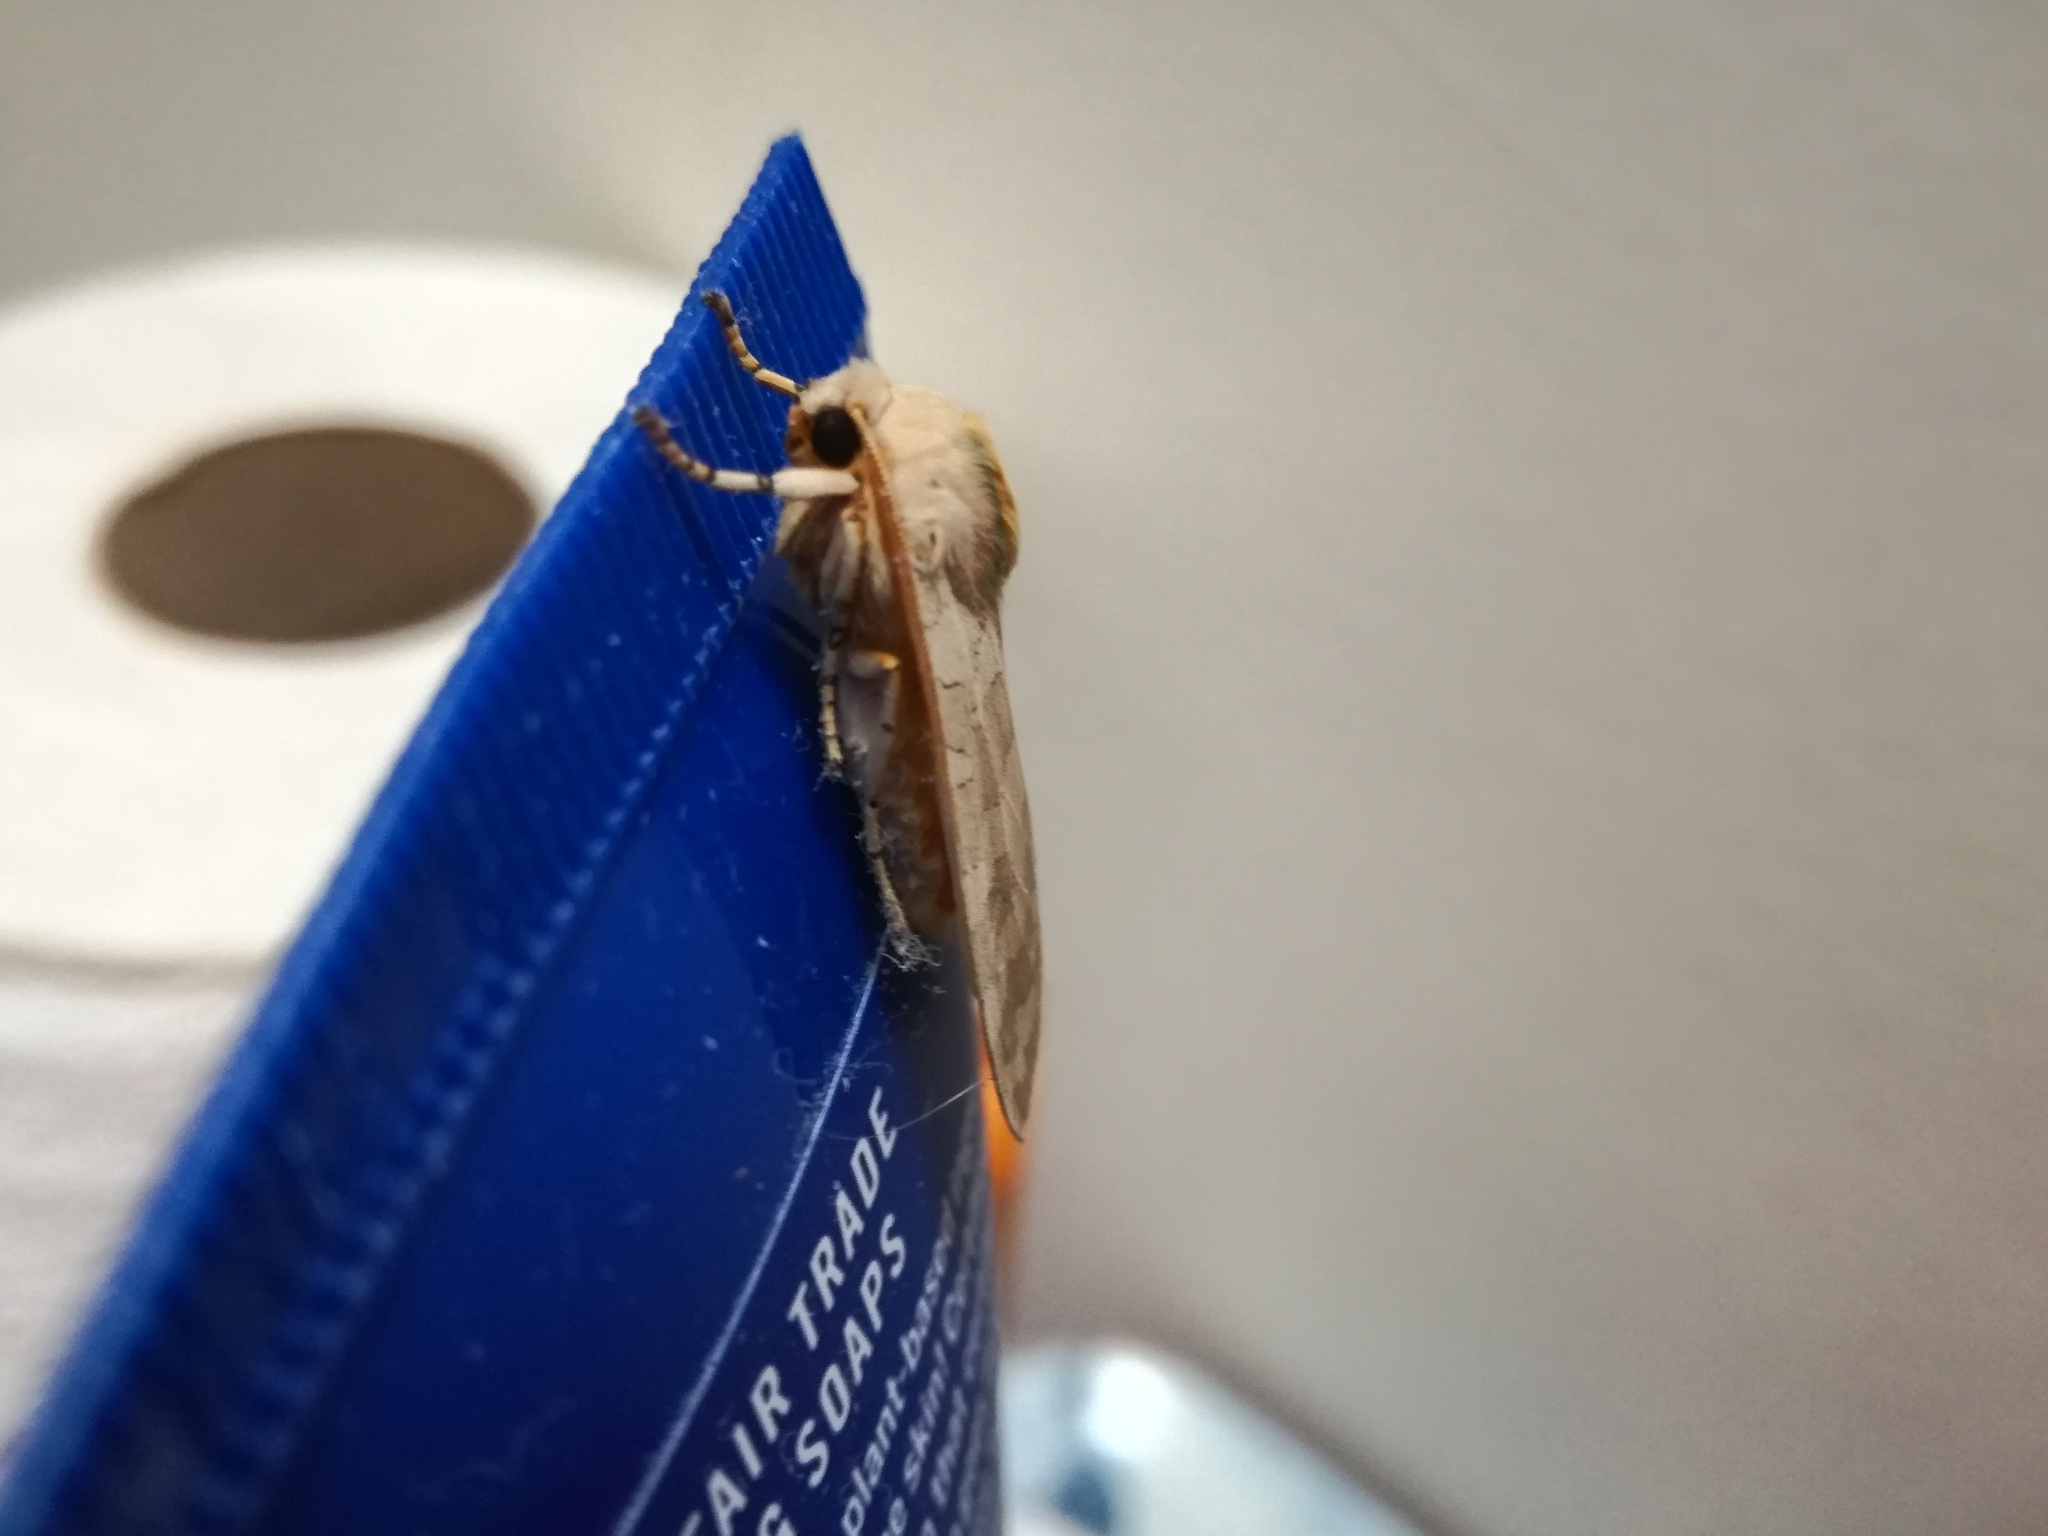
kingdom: Animalia
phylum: Arthropoda
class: Insecta
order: Lepidoptera
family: Erebidae
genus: Halysidota
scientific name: Halysidota
